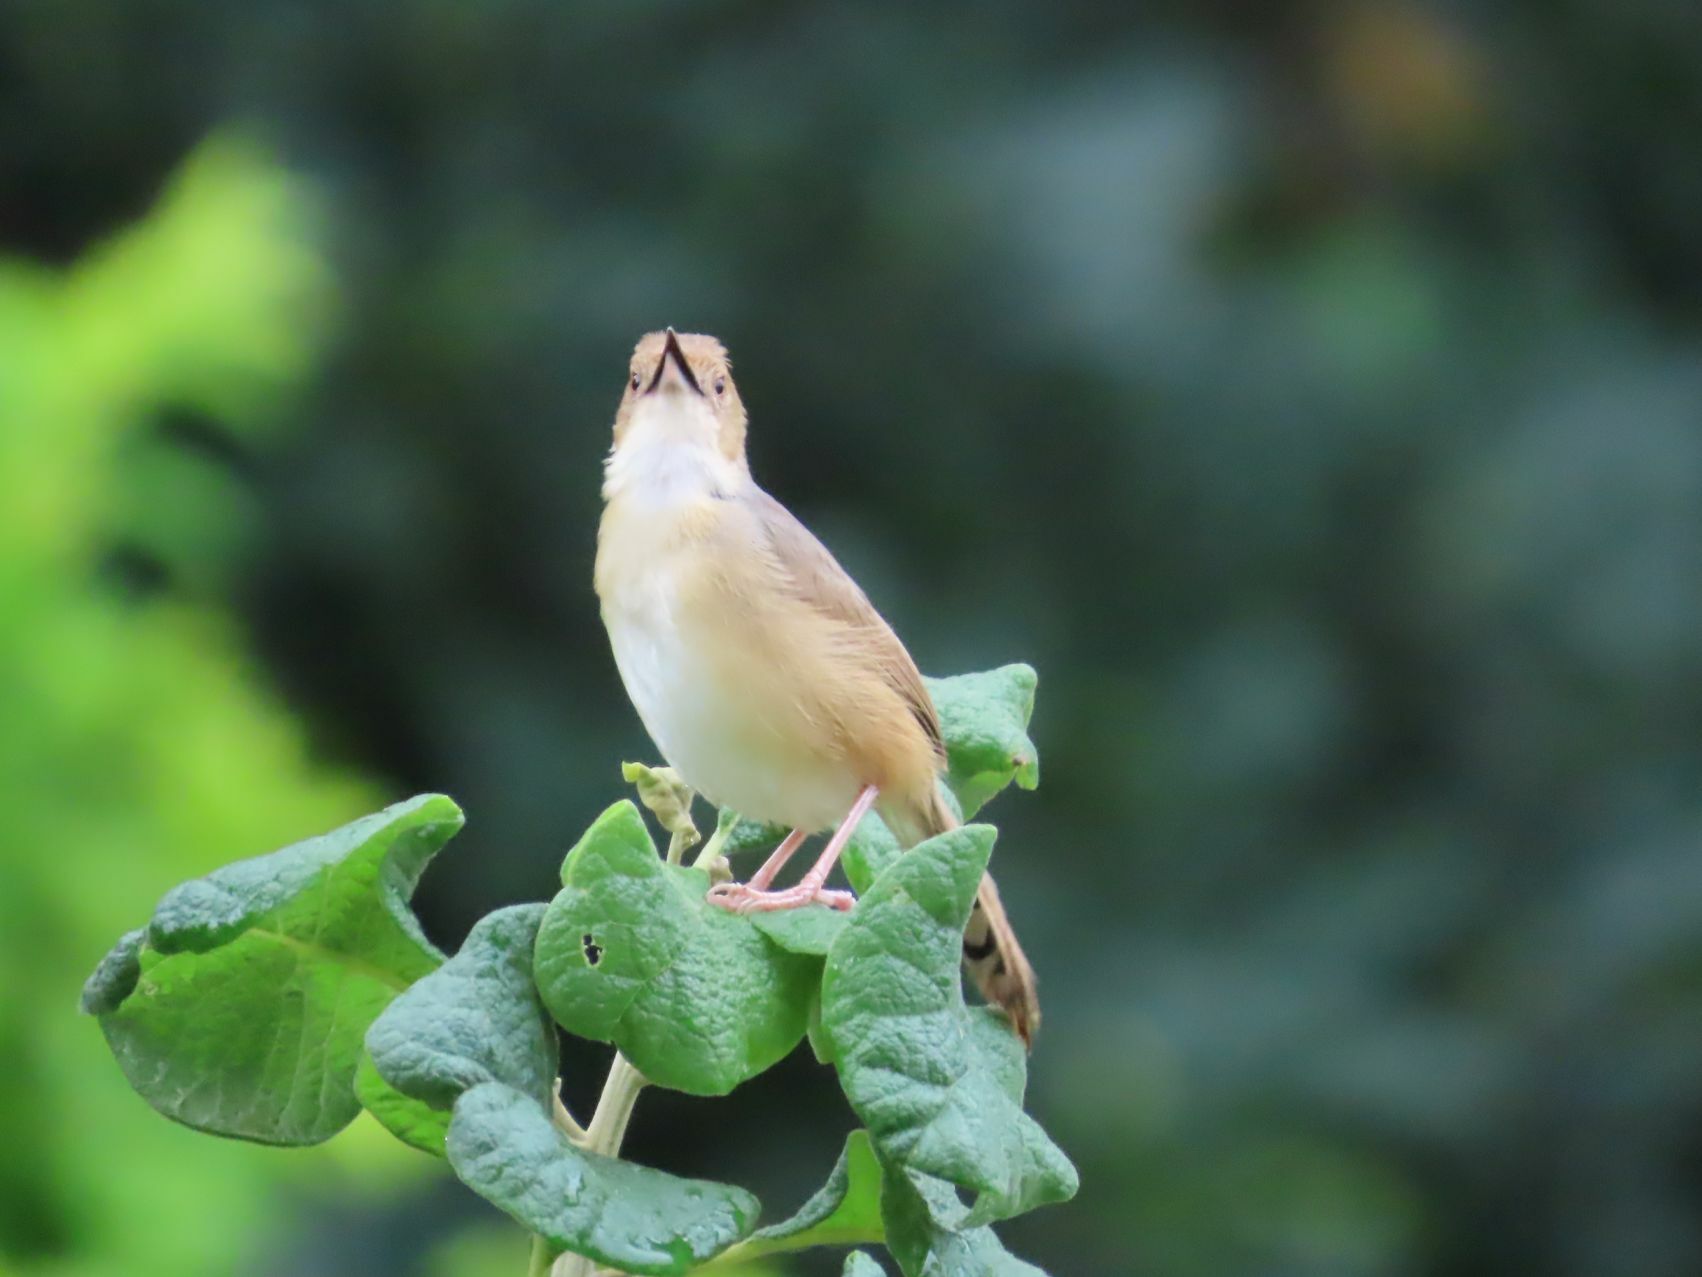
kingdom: Animalia
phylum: Chordata
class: Aves
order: Passeriformes
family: Cisticolidae
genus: Cisticola
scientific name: Cisticola erythrops
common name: Red-faced cisticola
